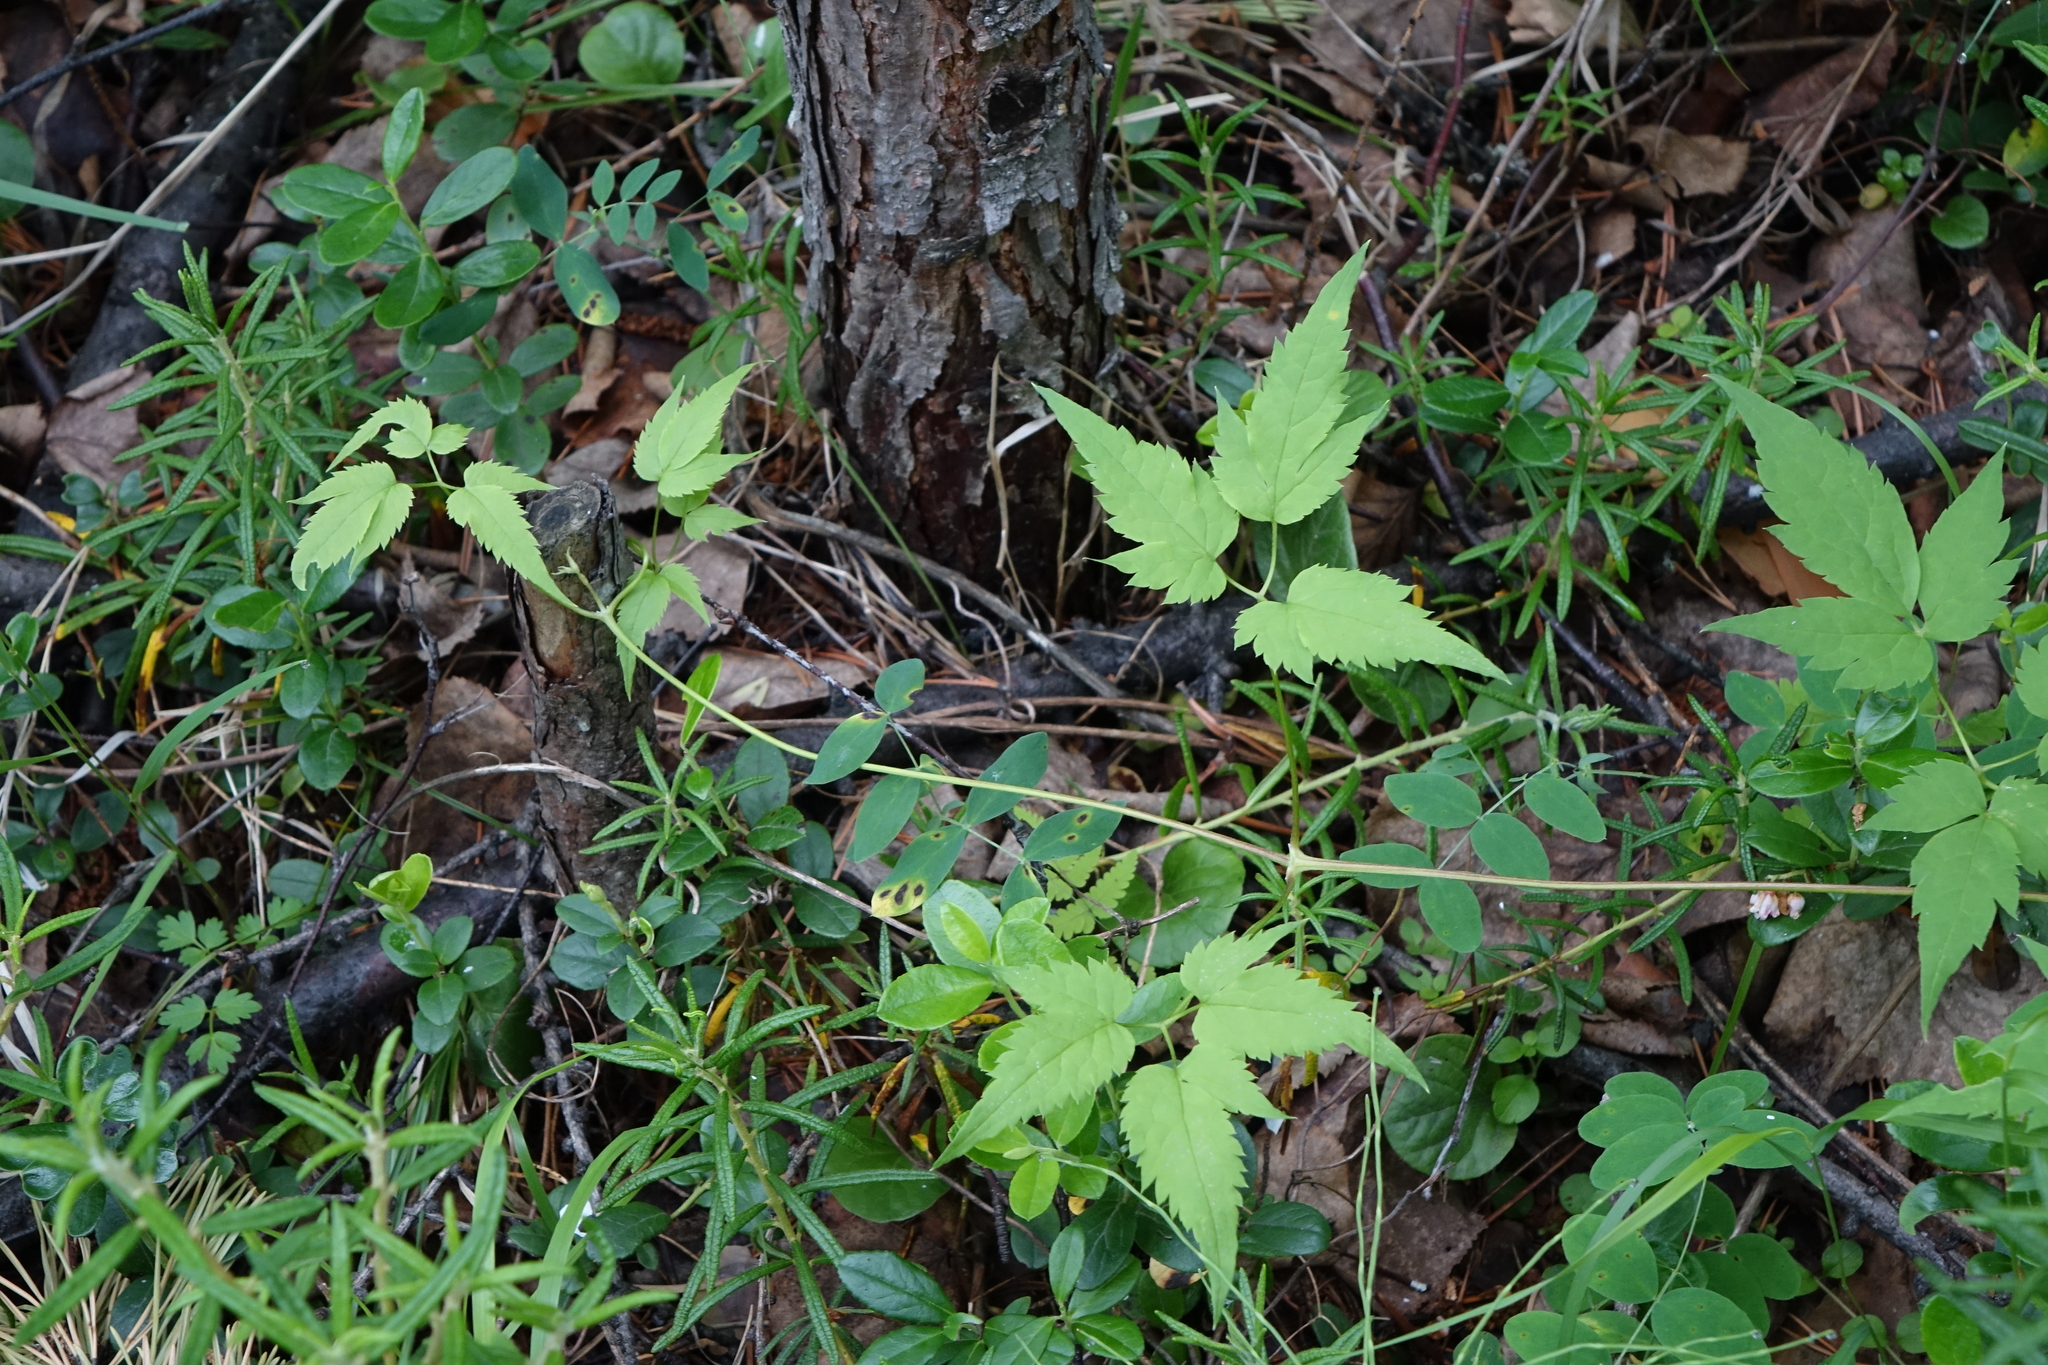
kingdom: Plantae
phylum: Tracheophyta
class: Magnoliopsida
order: Ranunculales
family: Ranunculaceae
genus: Clematis
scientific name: Clematis sibirica
